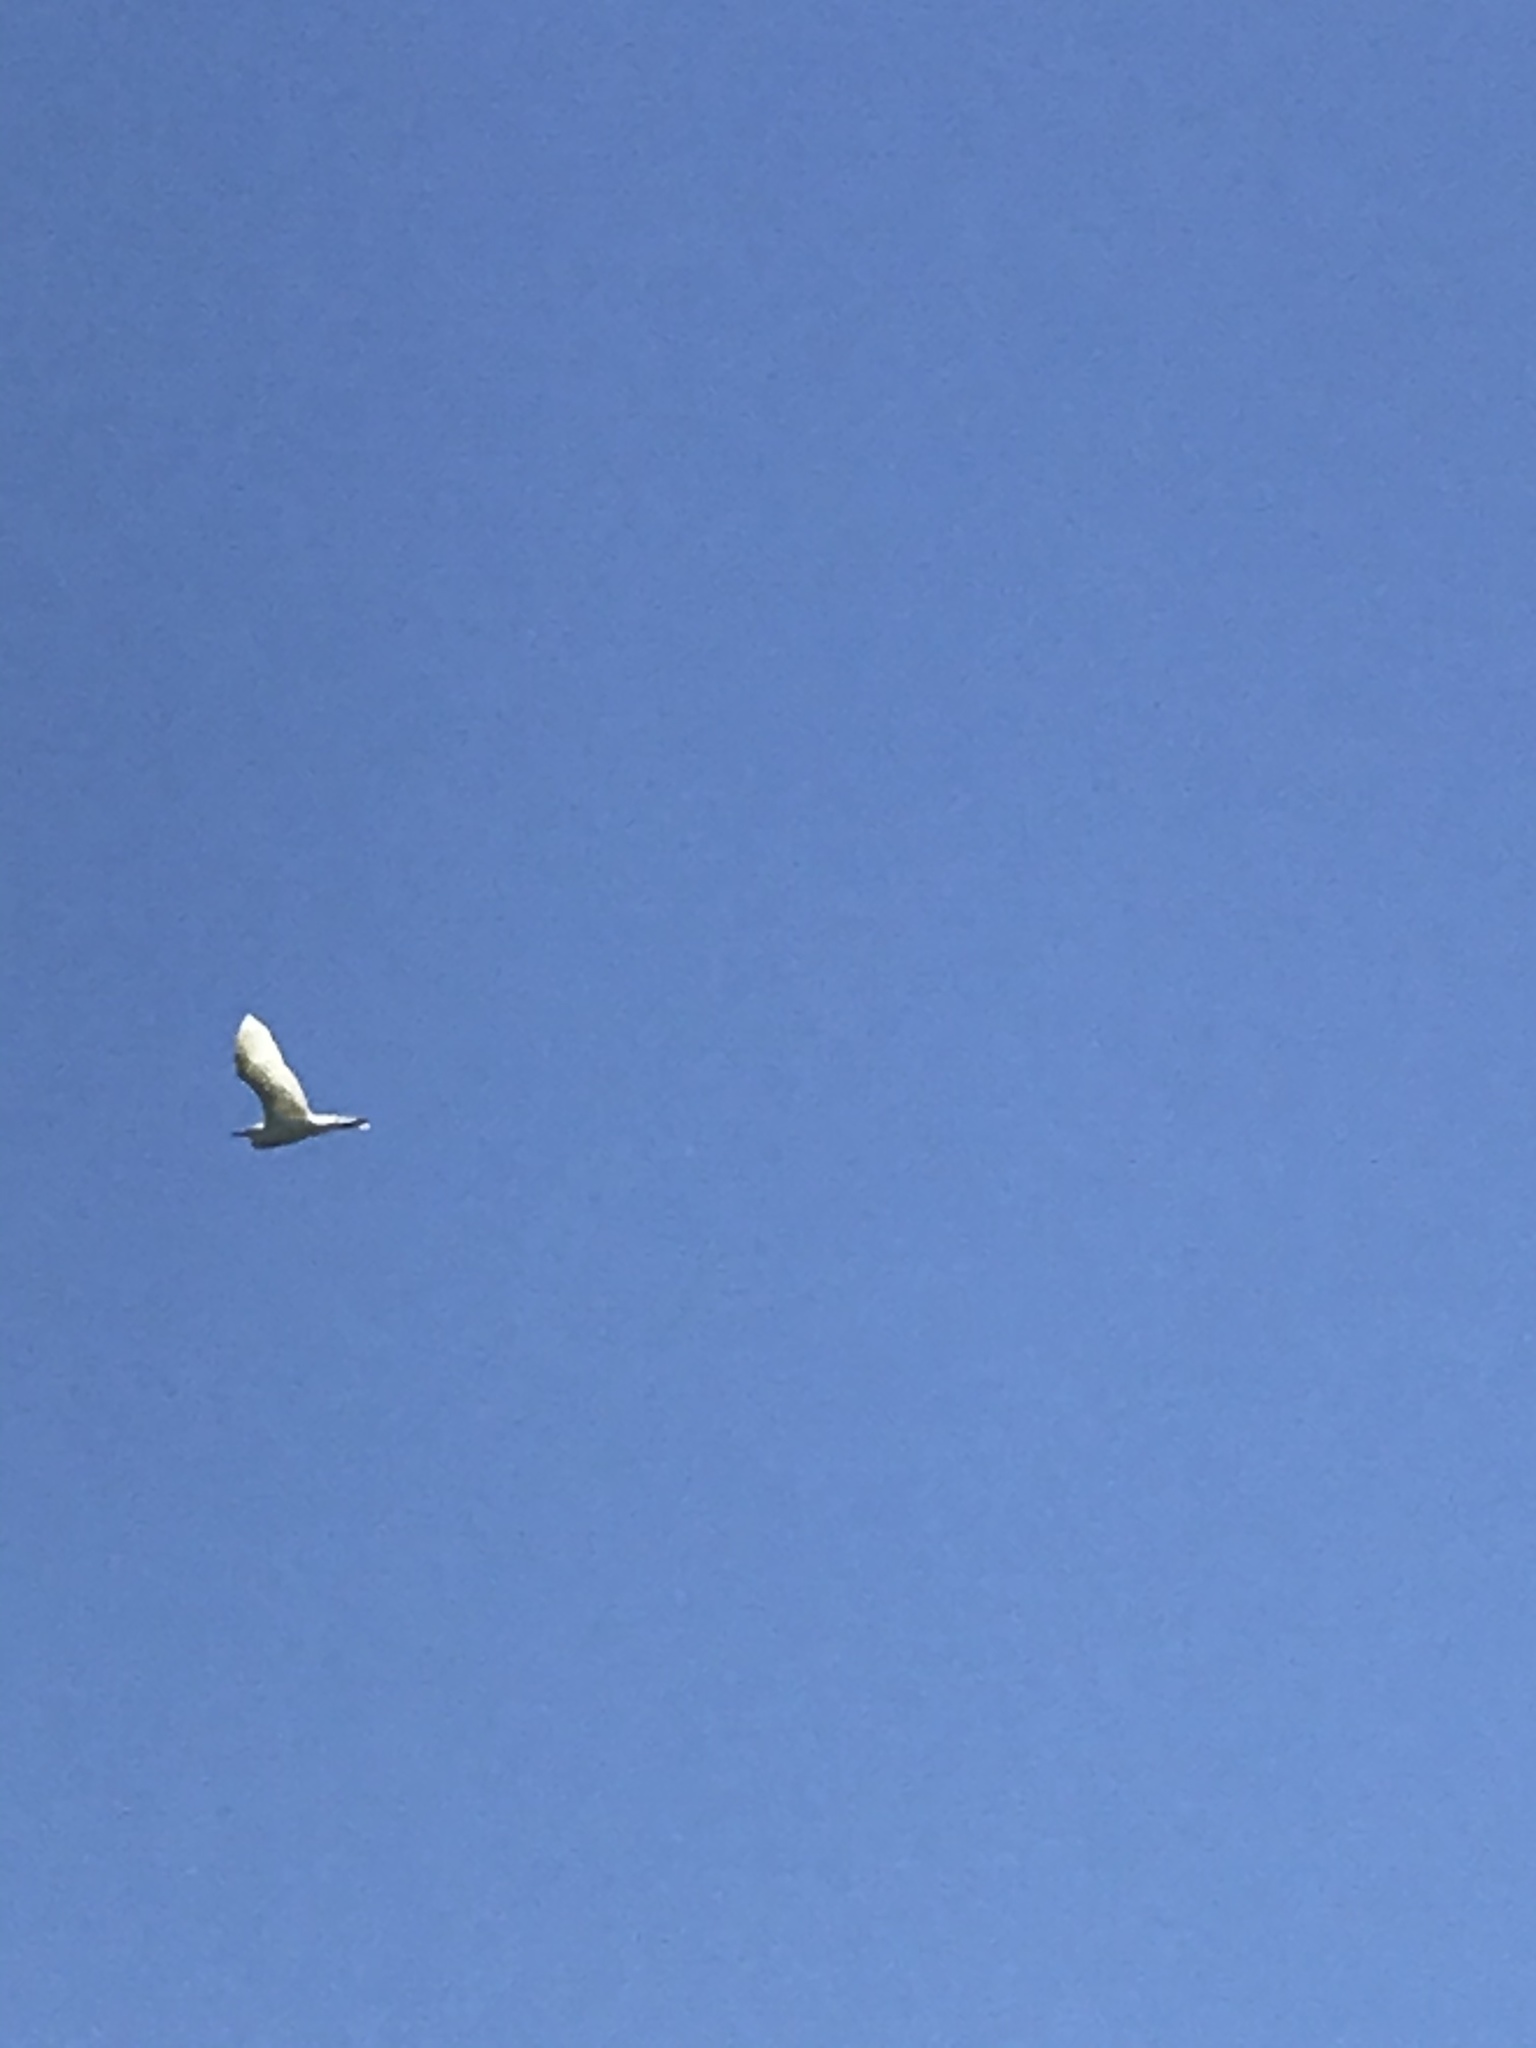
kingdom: Animalia
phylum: Chordata
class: Aves
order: Pelecaniformes
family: Ardeidae
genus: Ardea
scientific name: Ardea alba
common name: Great egret
